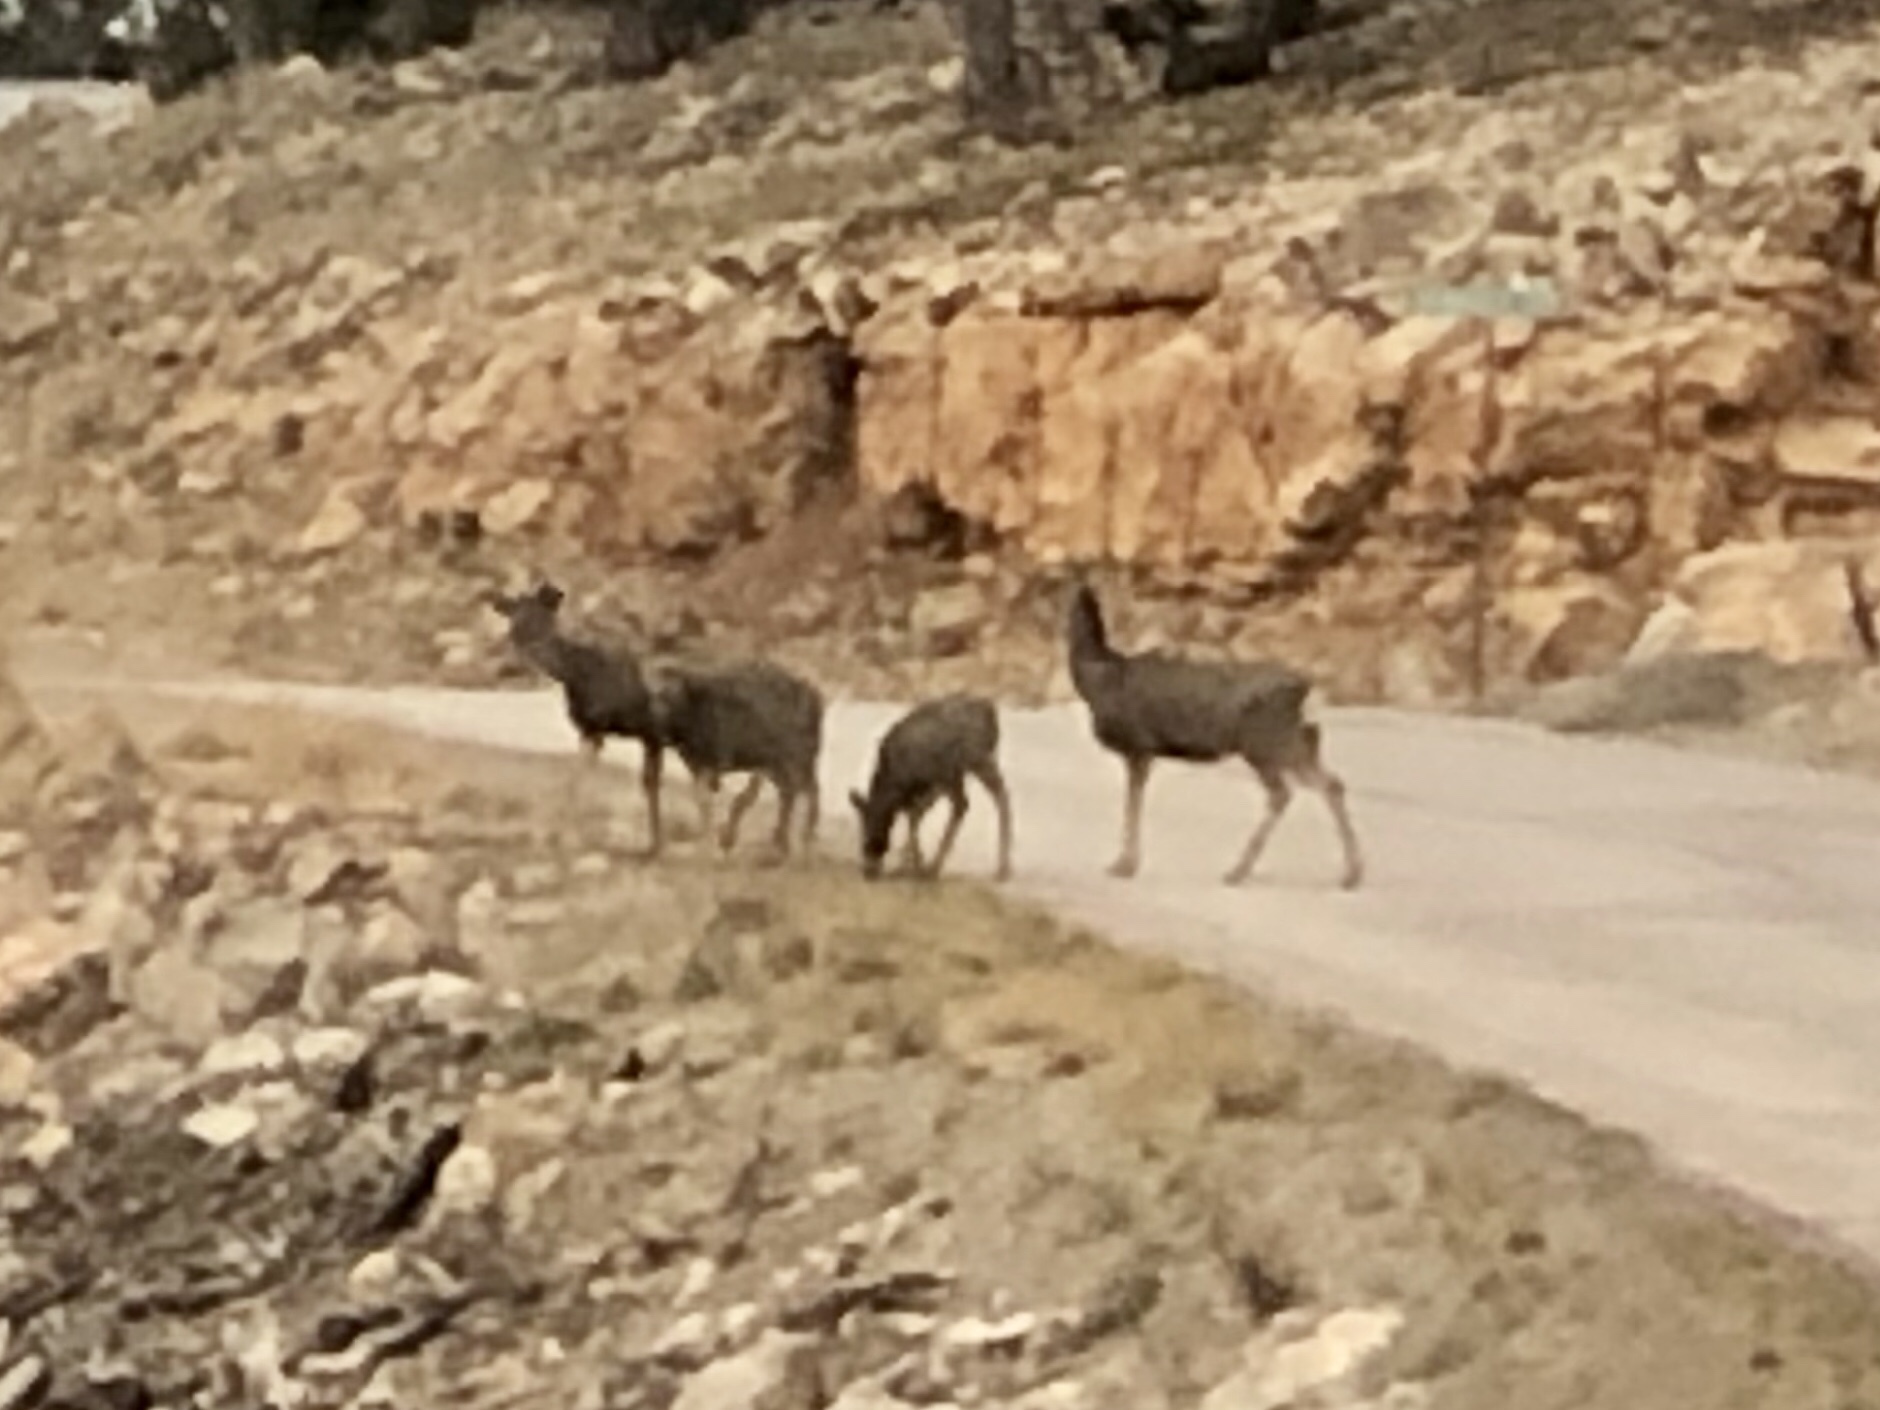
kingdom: Animalia
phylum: Chordata
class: Mammalia
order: Artiodactyla
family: Cervidae
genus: Odocoileus
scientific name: Odocoileus hemionus
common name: Mule deer
